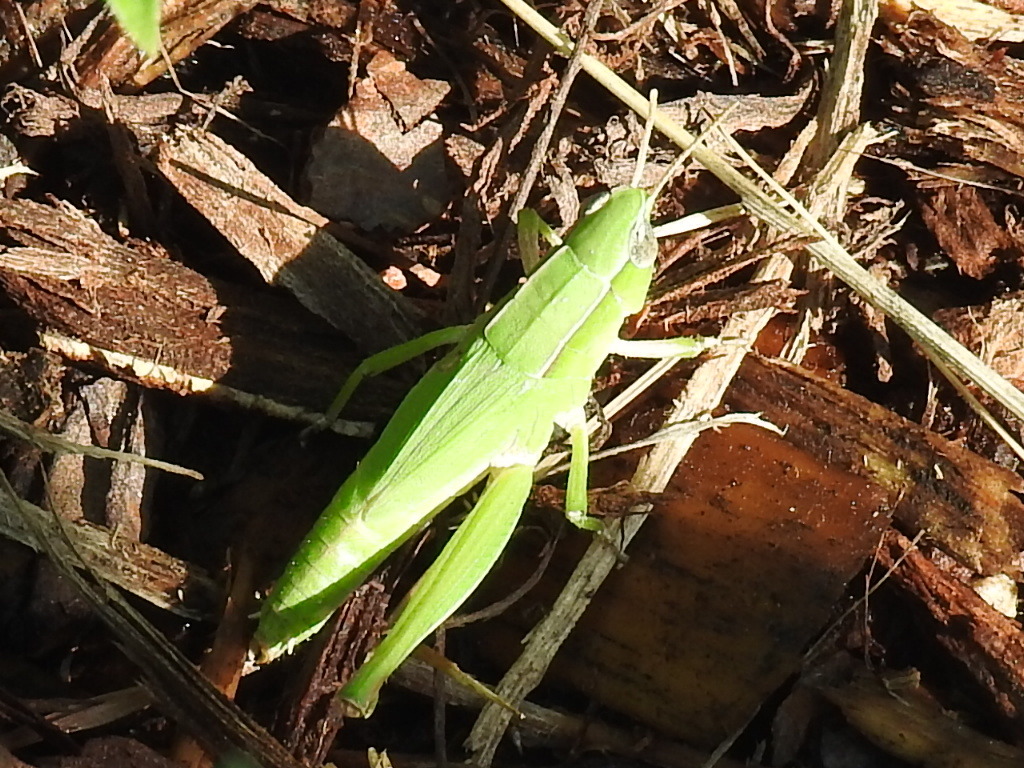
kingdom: Animalia
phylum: Arthropoda
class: Insecta
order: Orthoptera
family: Acrididae
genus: Dichromorpha
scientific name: Dichromorpha viridis
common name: Short-winged green grasshopper
